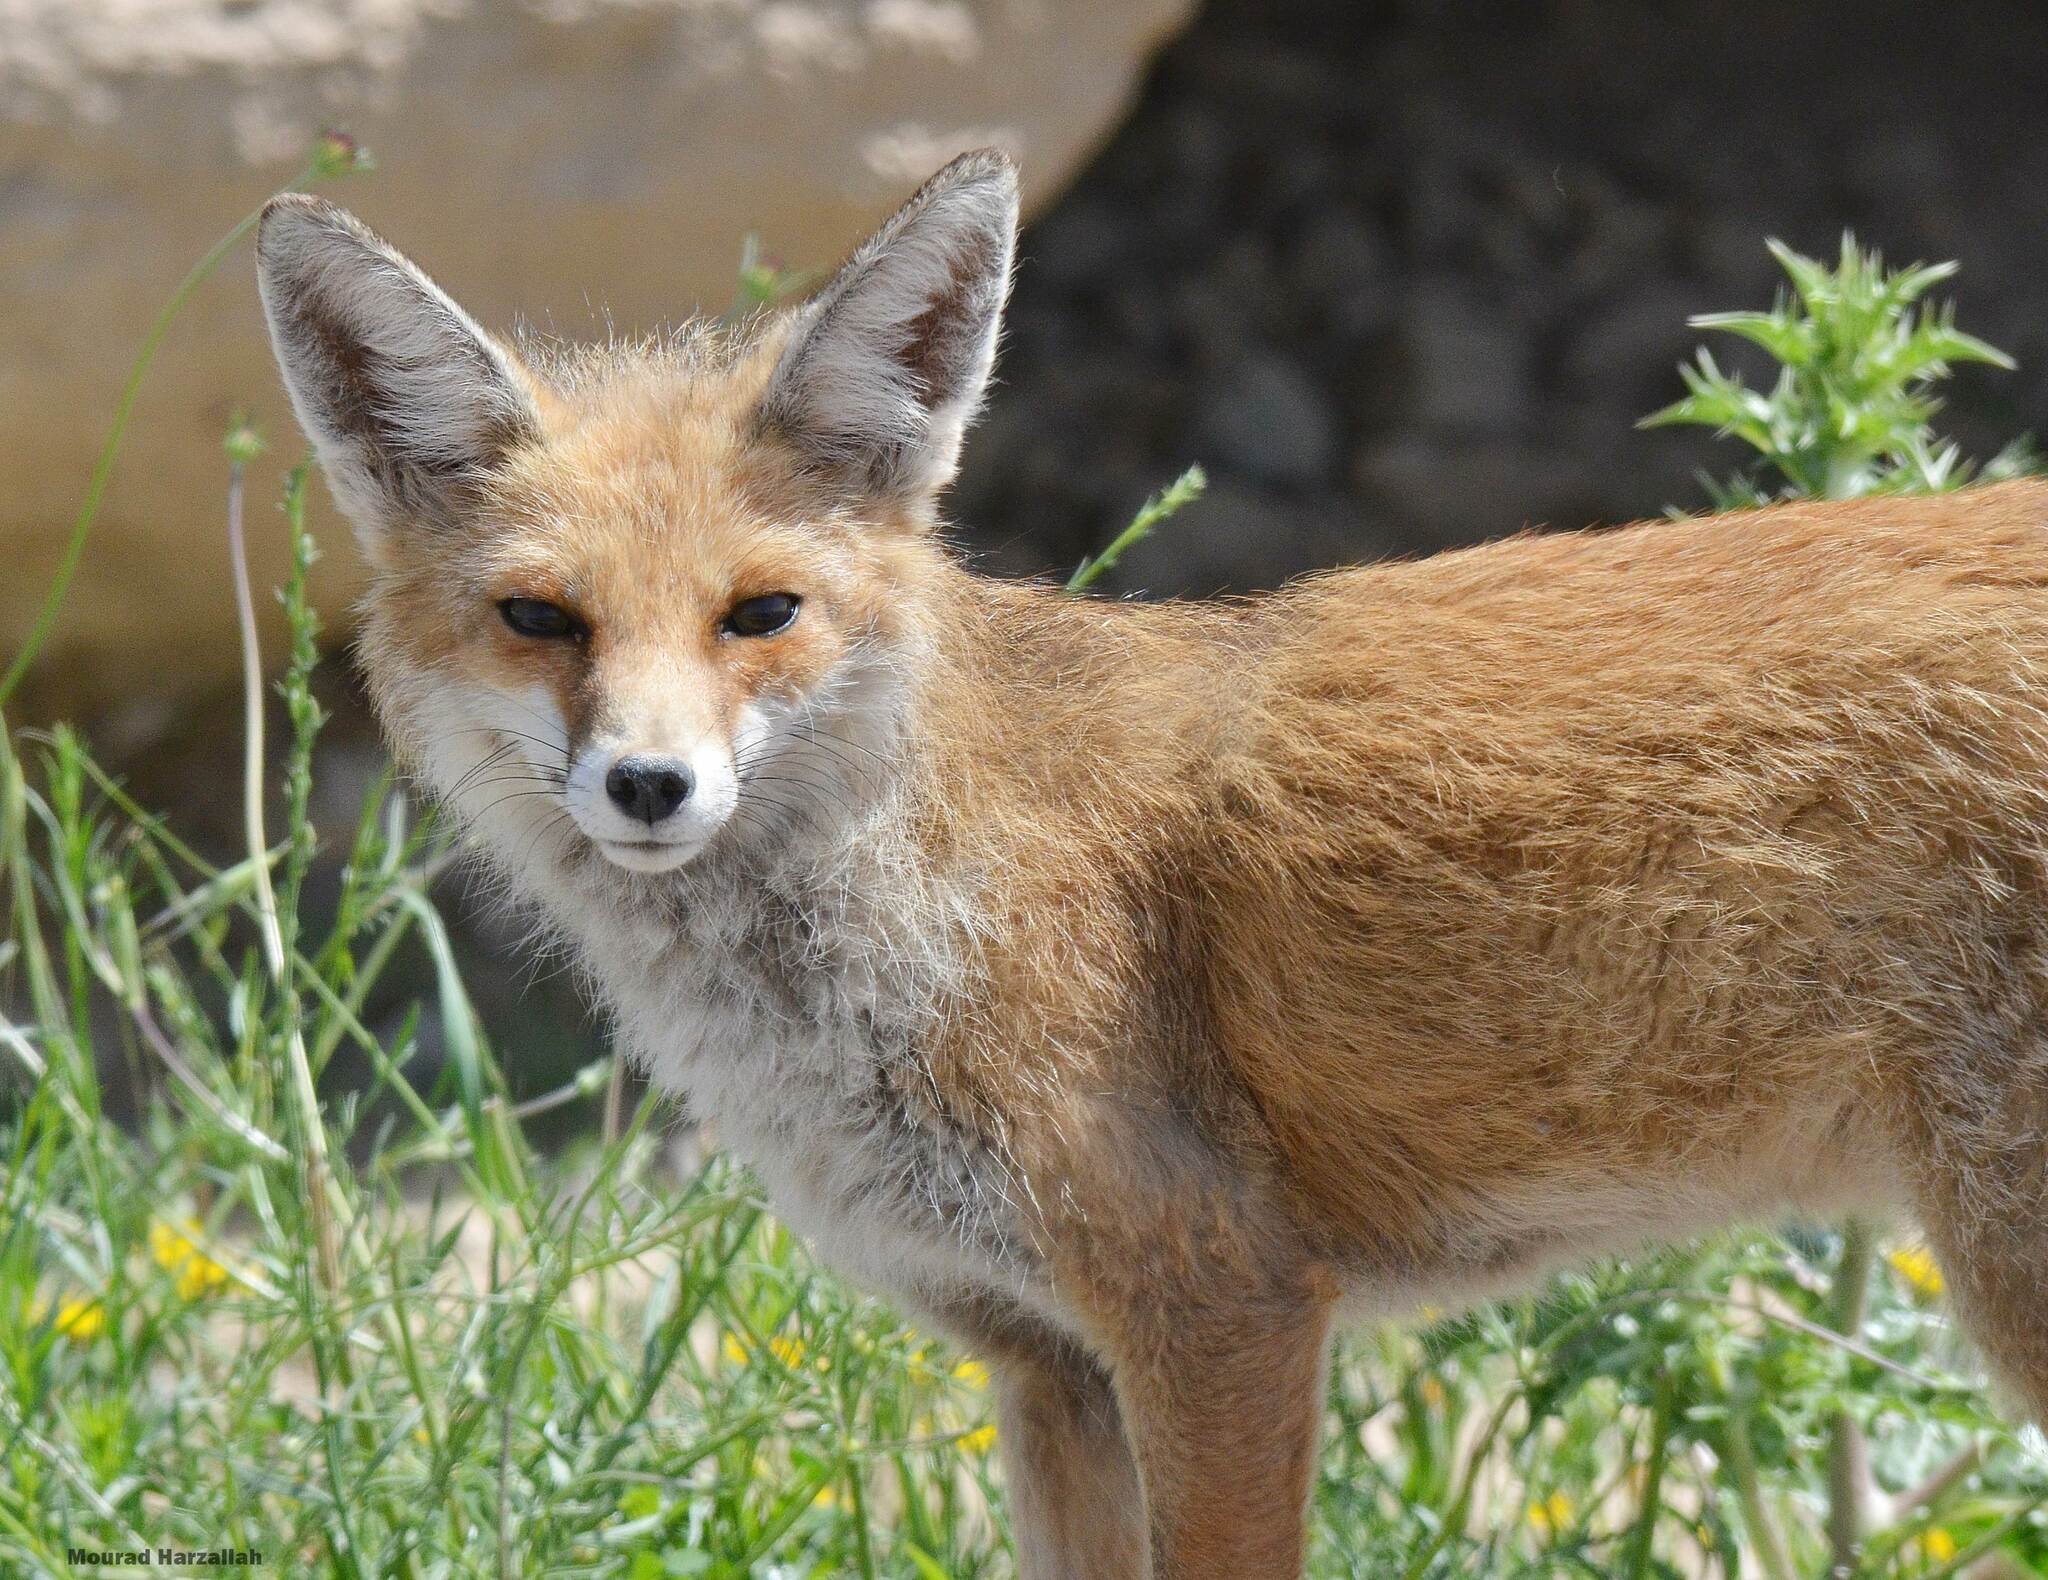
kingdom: Animalia
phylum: Chordata
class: Mammalia
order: Carnivora
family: Canidae
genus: Vulpes
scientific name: Vulpes vulpes
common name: Red fox
